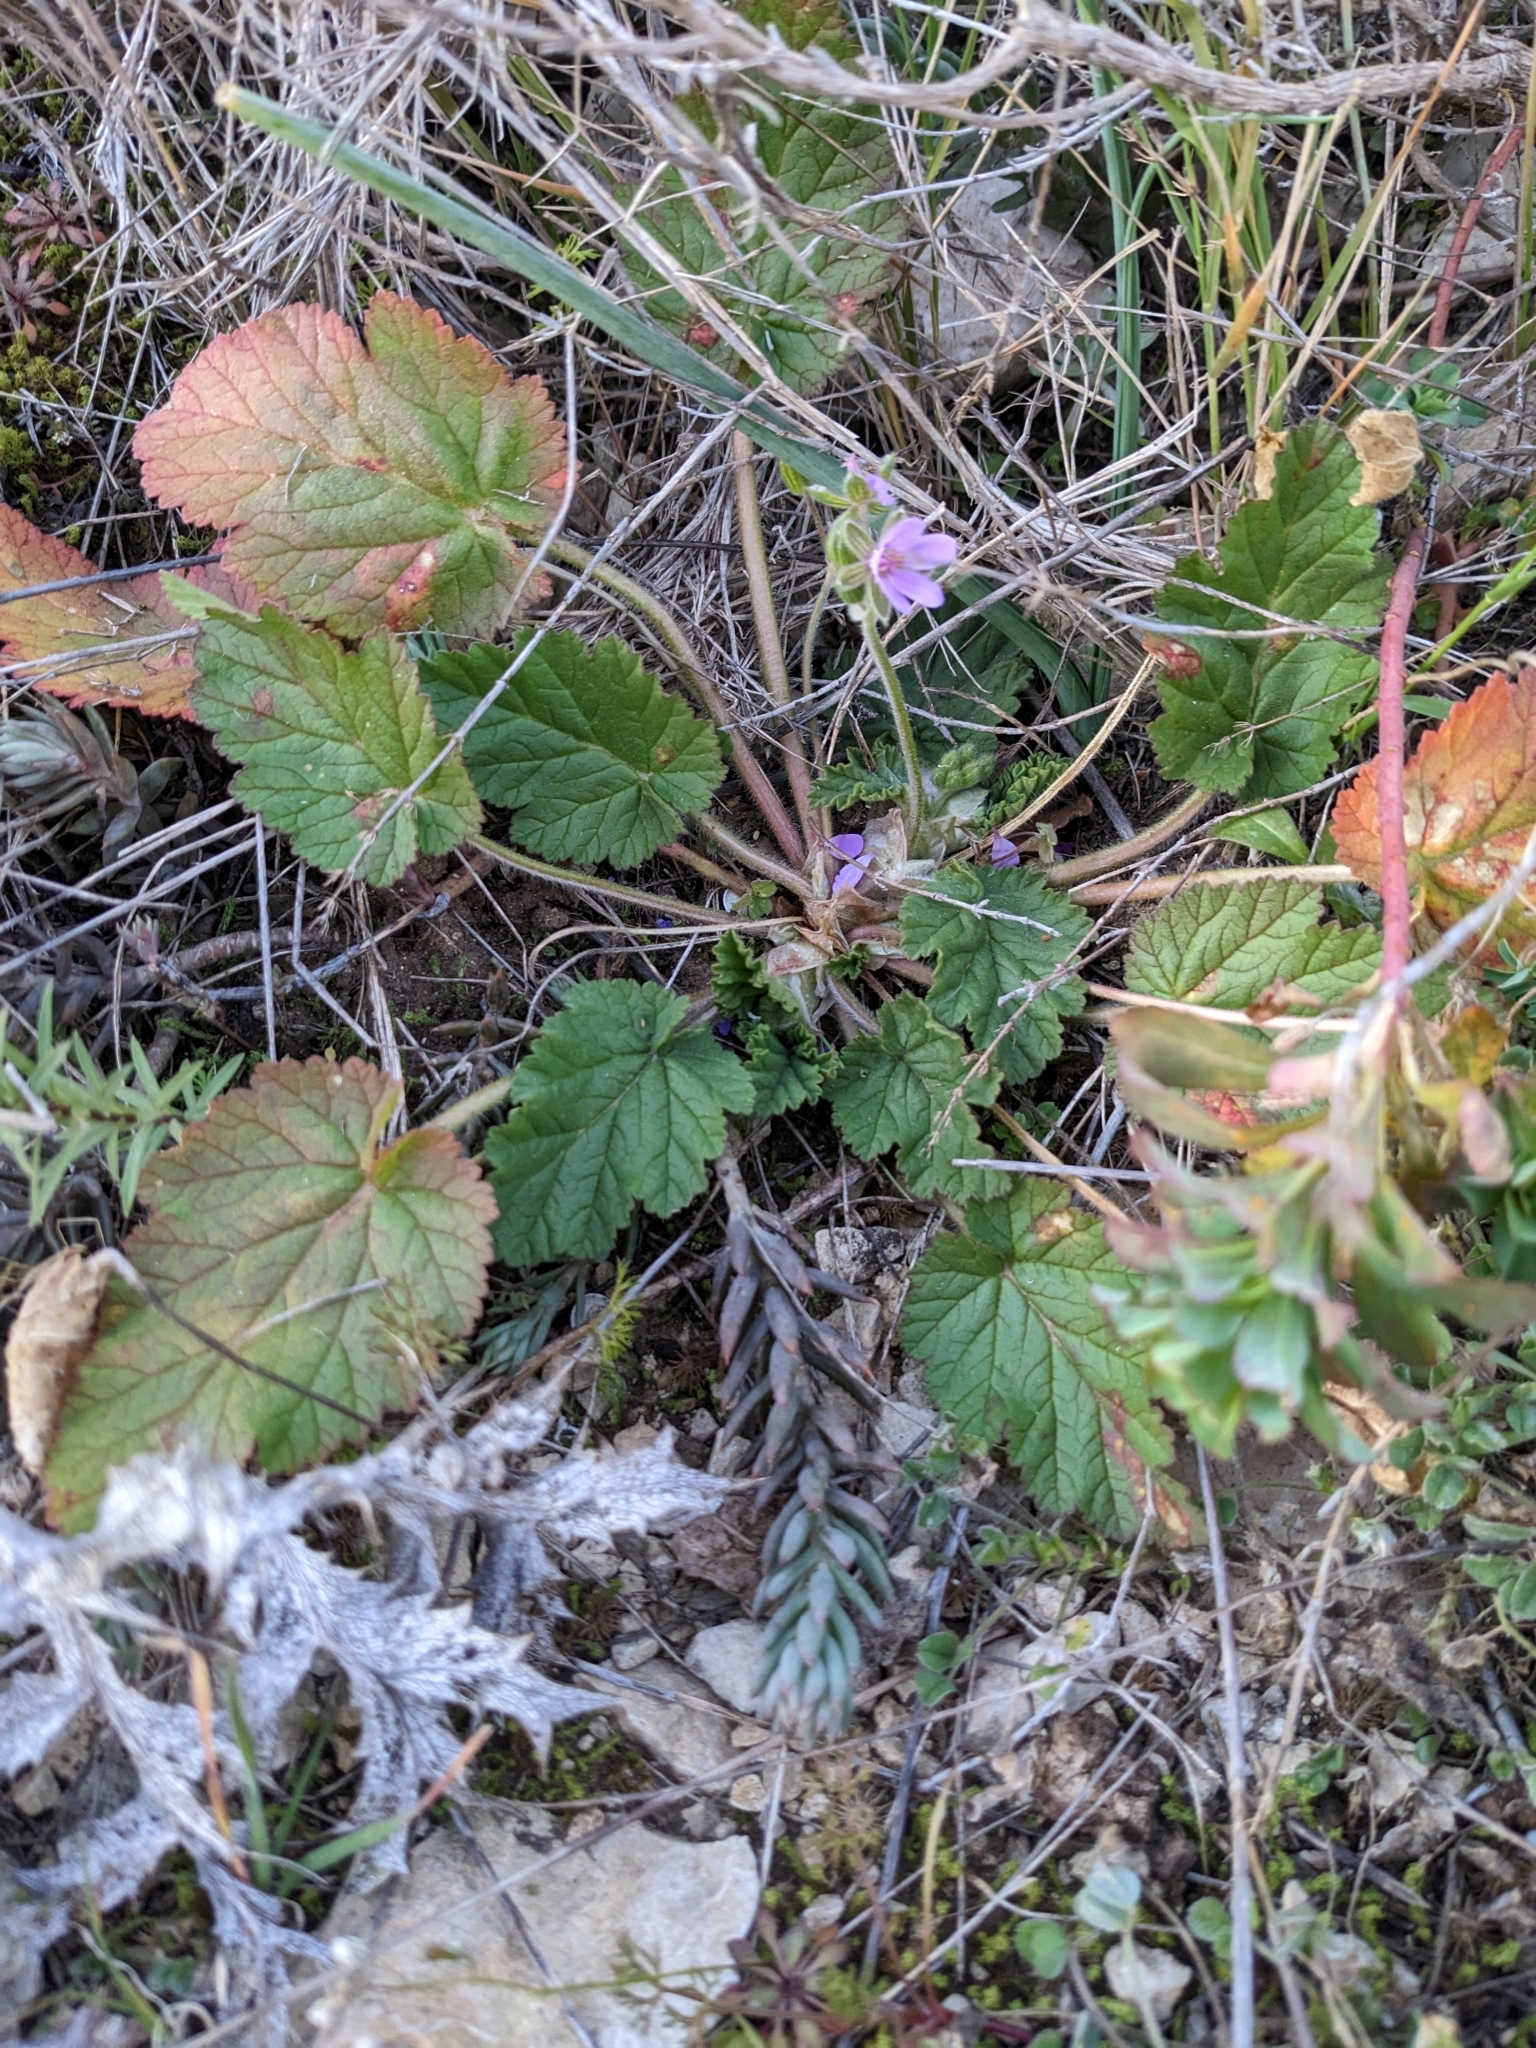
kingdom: Plantae
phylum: Tracheophyta
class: Magnoliopsida
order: Geraniales
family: Geraniaceae
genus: Erodium
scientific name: Erodium malacoides
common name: Soft stork's-bill
